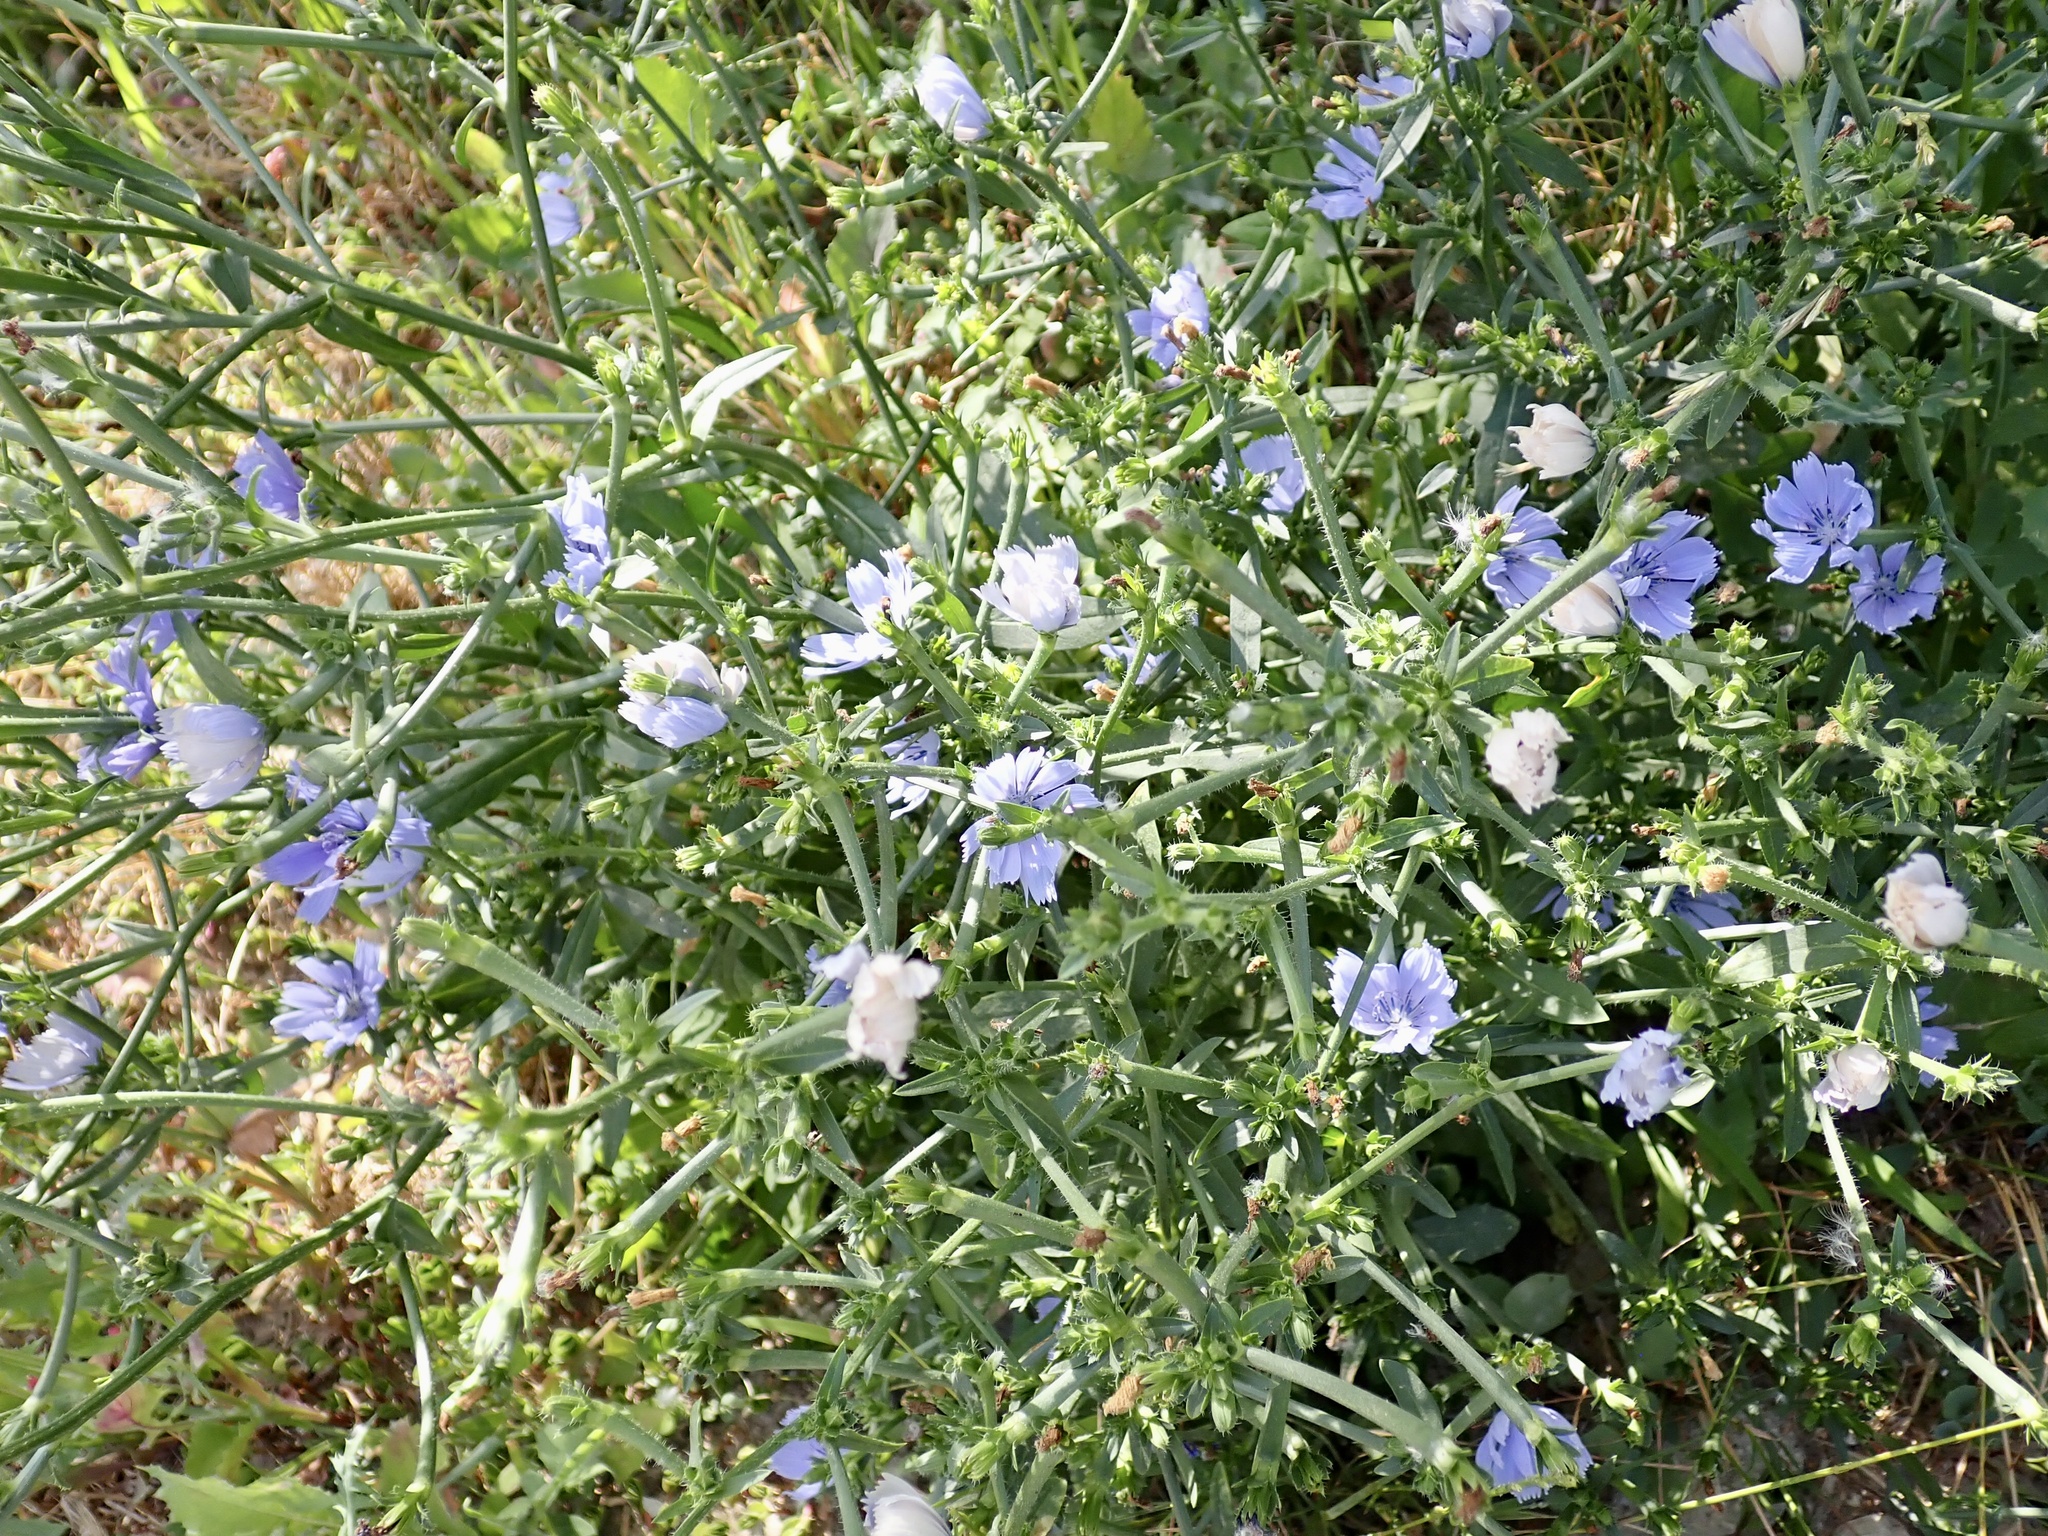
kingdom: Plantae
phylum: Tracheophyta
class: Magnoliopsida
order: Asterales
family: Asteraceae
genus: Cichorium
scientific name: Cichorium intybus
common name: Chicory
